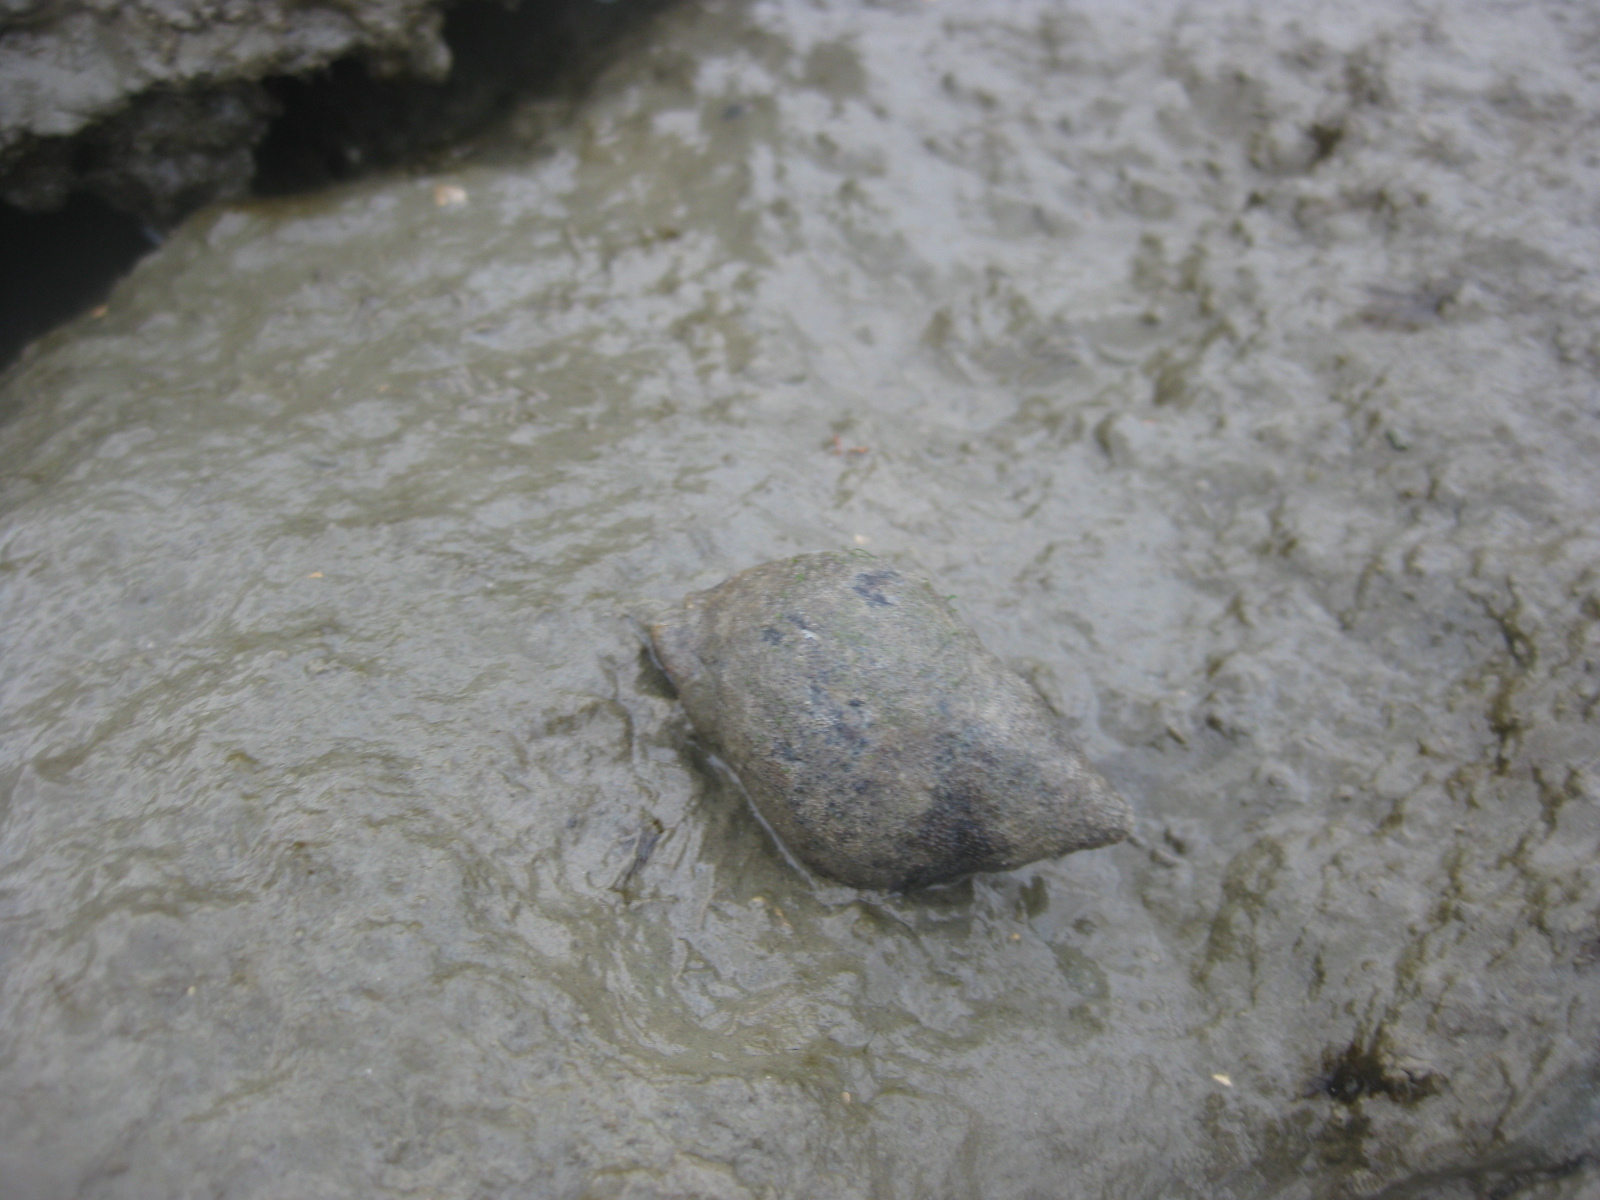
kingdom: Animalia
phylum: Mollusca
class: Gastropoda
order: Neogastropoda
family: Cominellidae
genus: Cominella
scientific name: Cominella adspersa
